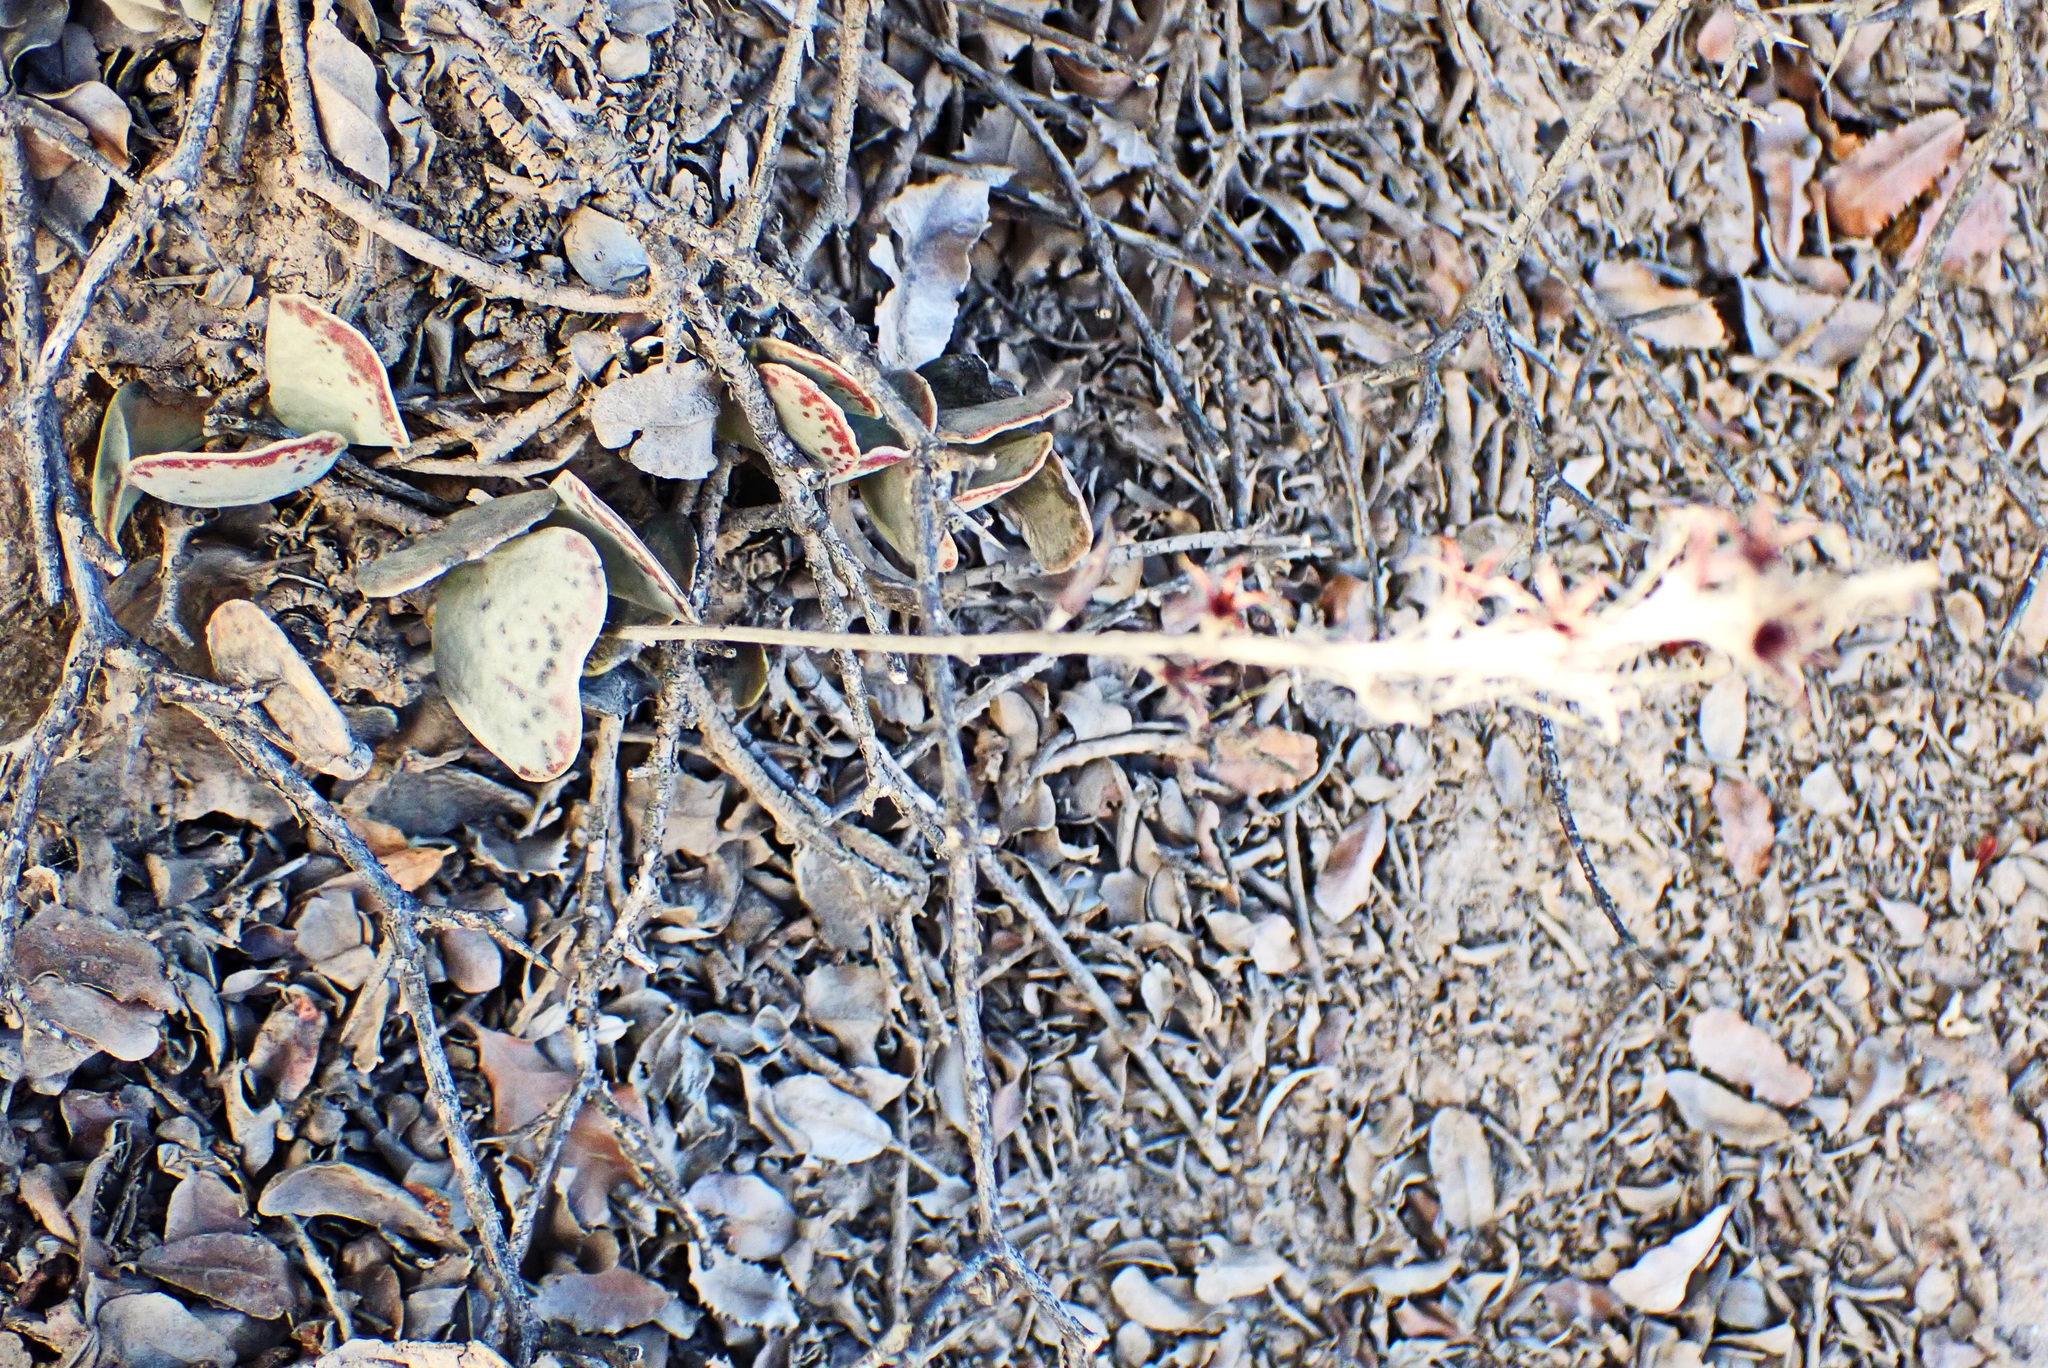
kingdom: Plantae
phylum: Tracheophyta
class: Magnoliopsida
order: Saxifragales
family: Crassulaceae
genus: Adromischus
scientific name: Adromischus triflorus
